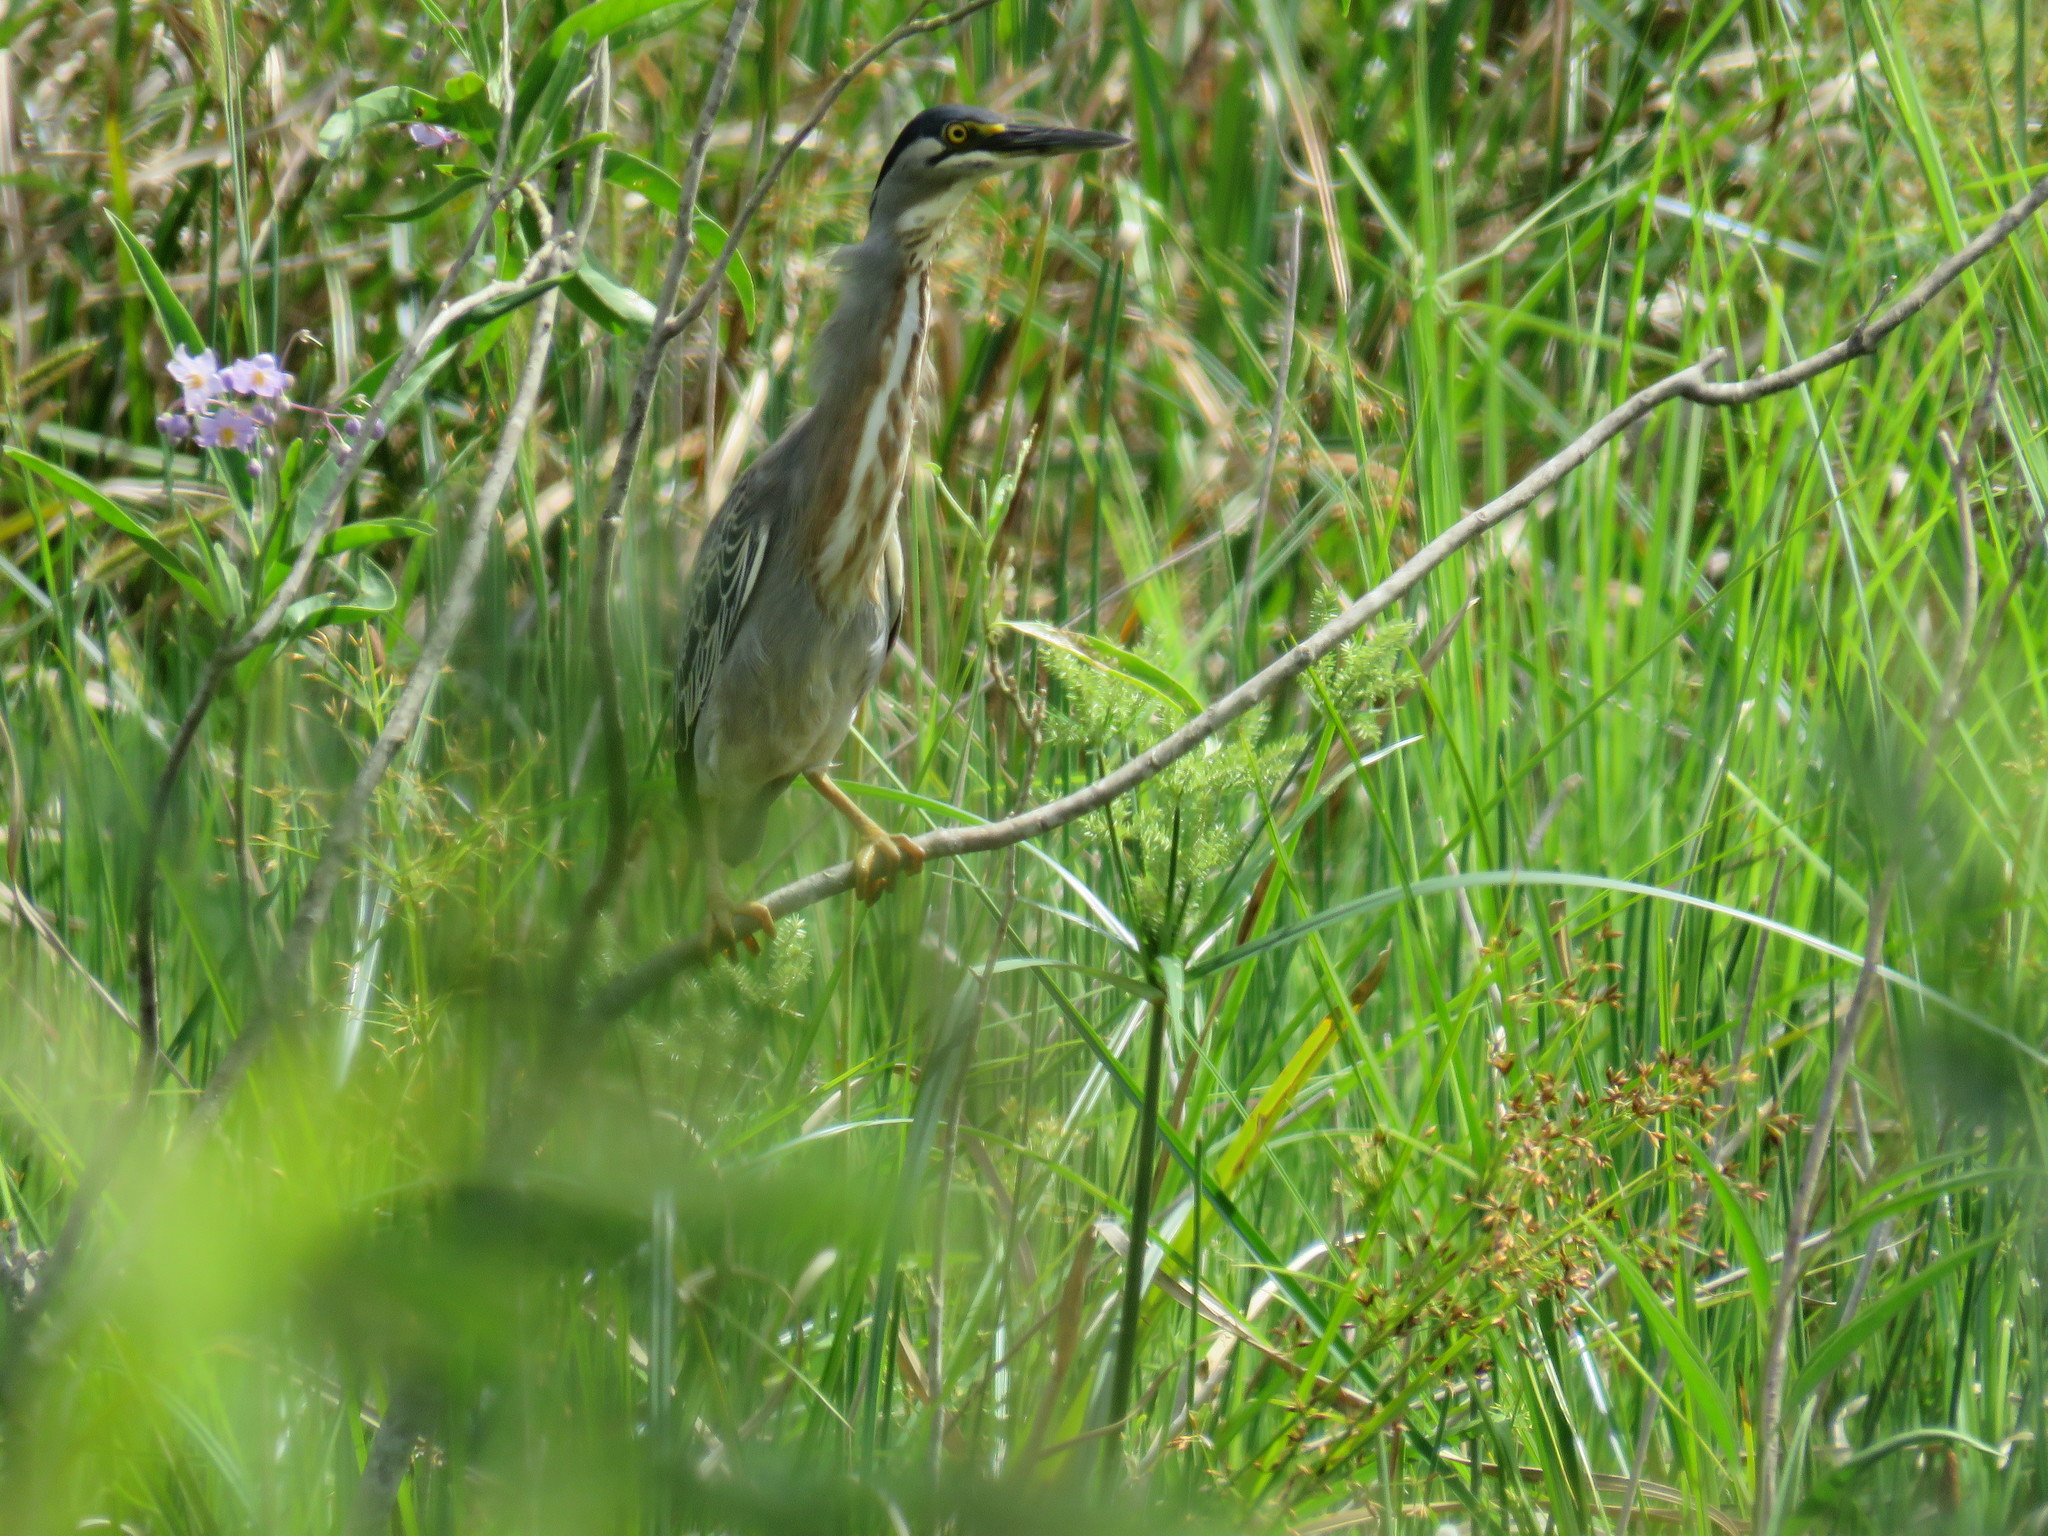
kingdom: Animalia
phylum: Chordata
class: Aves
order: Pelecaniformes
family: Ardeidae
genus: Butorides
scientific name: Butorides striata
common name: Striated heron
